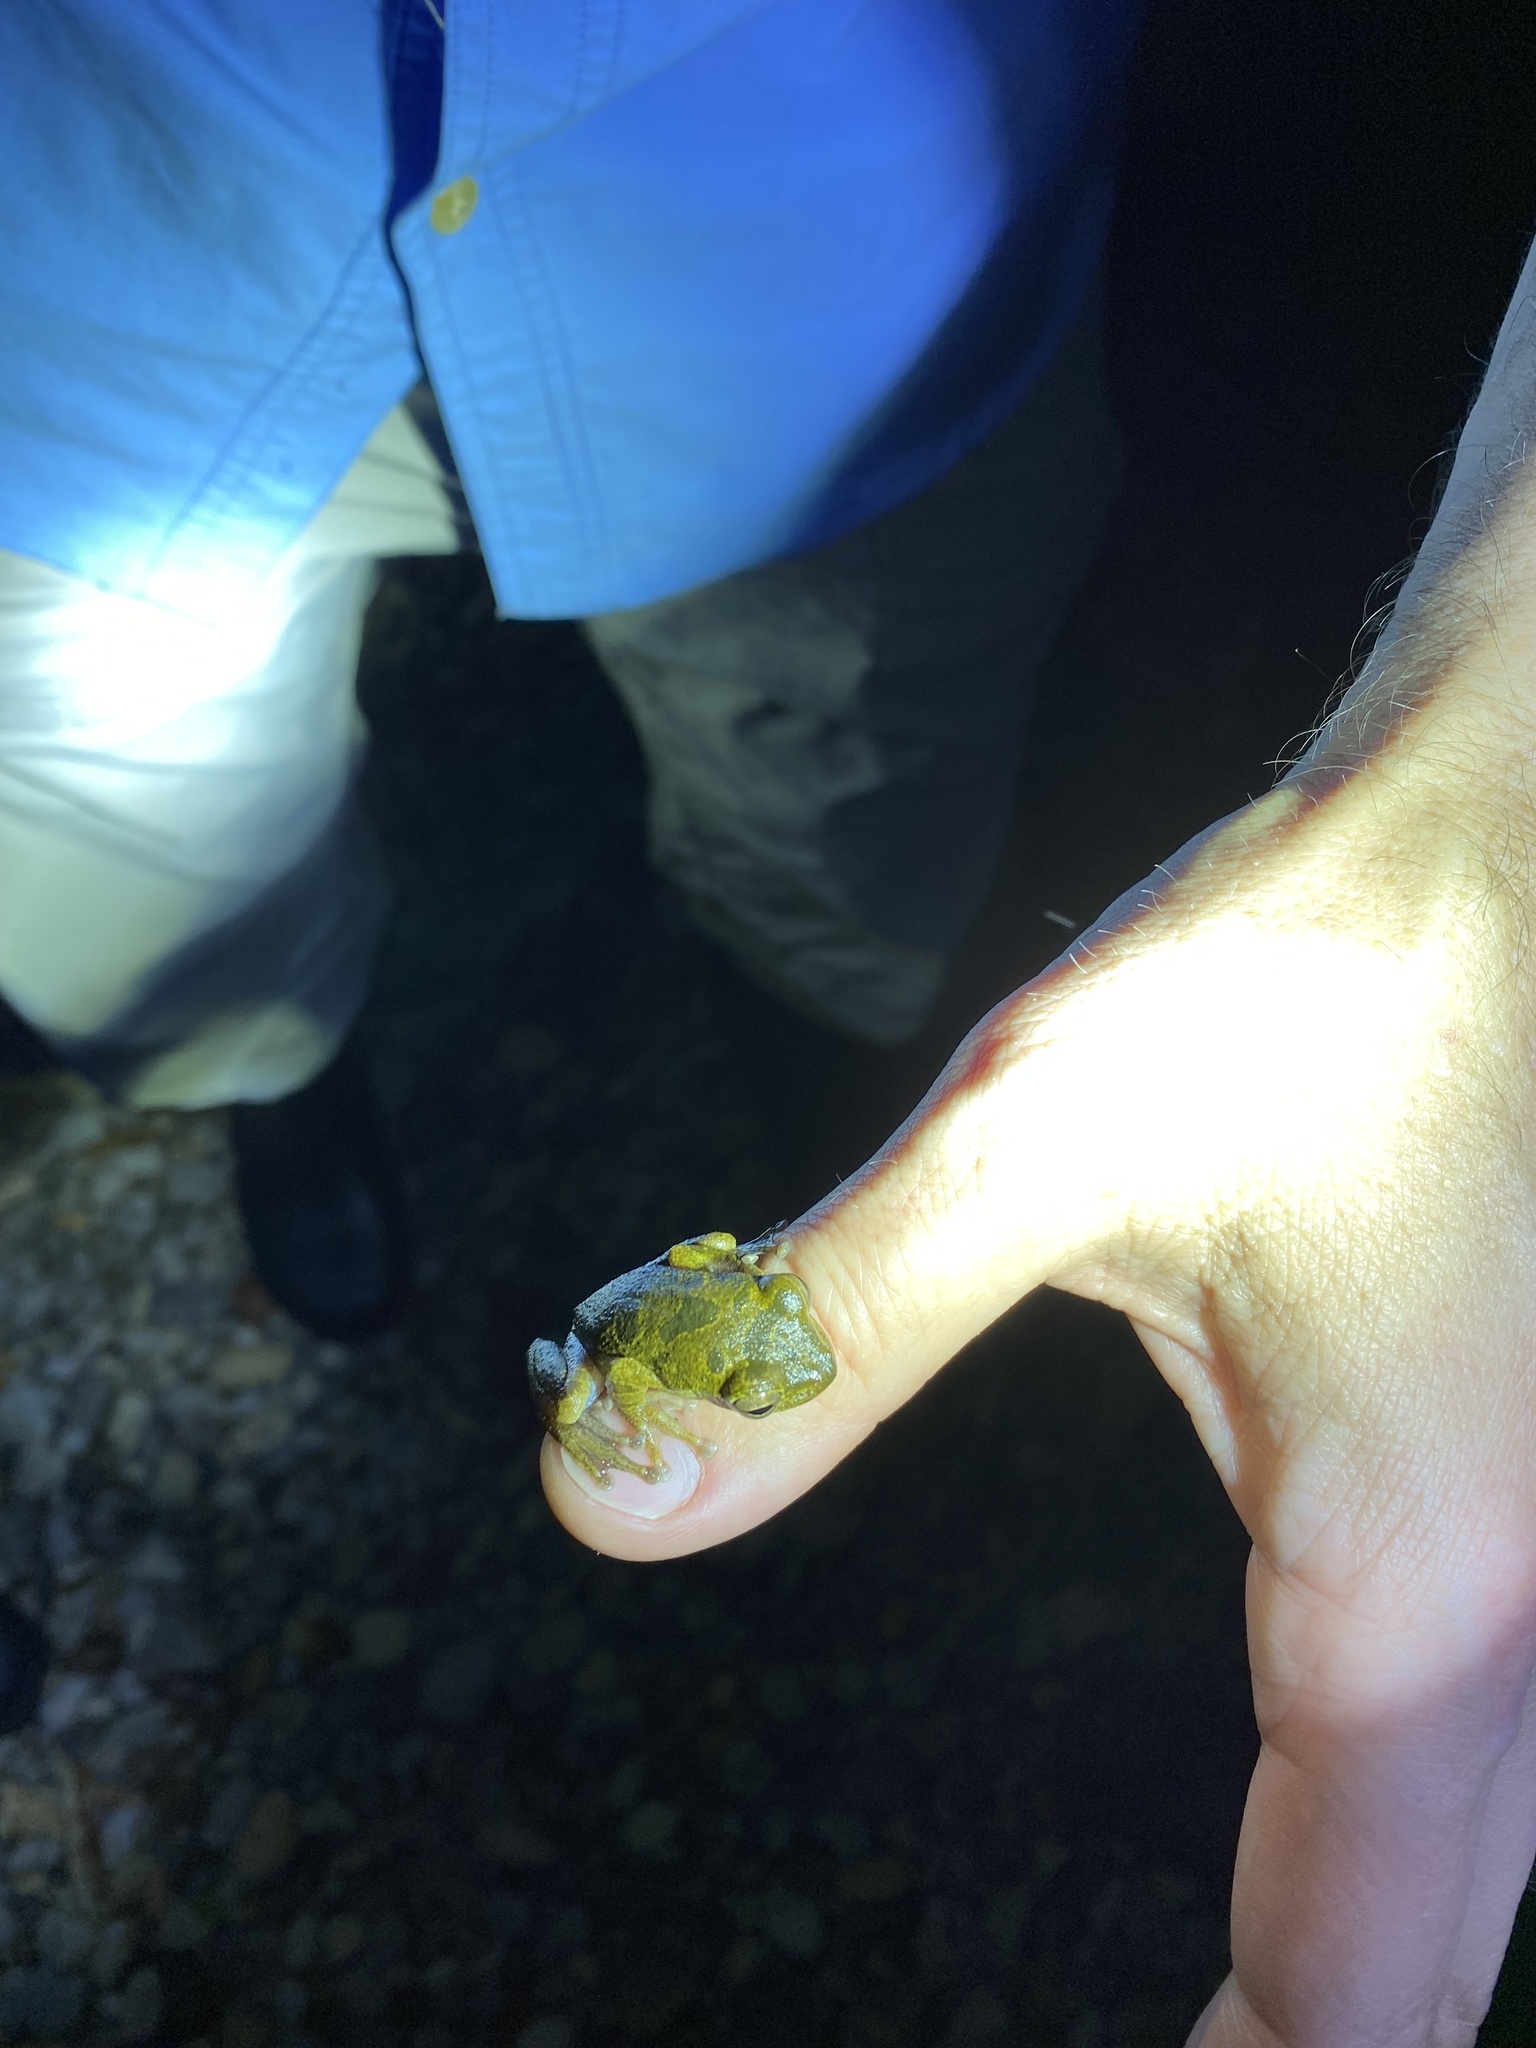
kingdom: Animalia
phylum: Chordata
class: Amphibia
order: Anura
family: Hylidae
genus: Smilisca
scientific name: Smilisca sordida
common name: Veragua cross-banded treefrog
